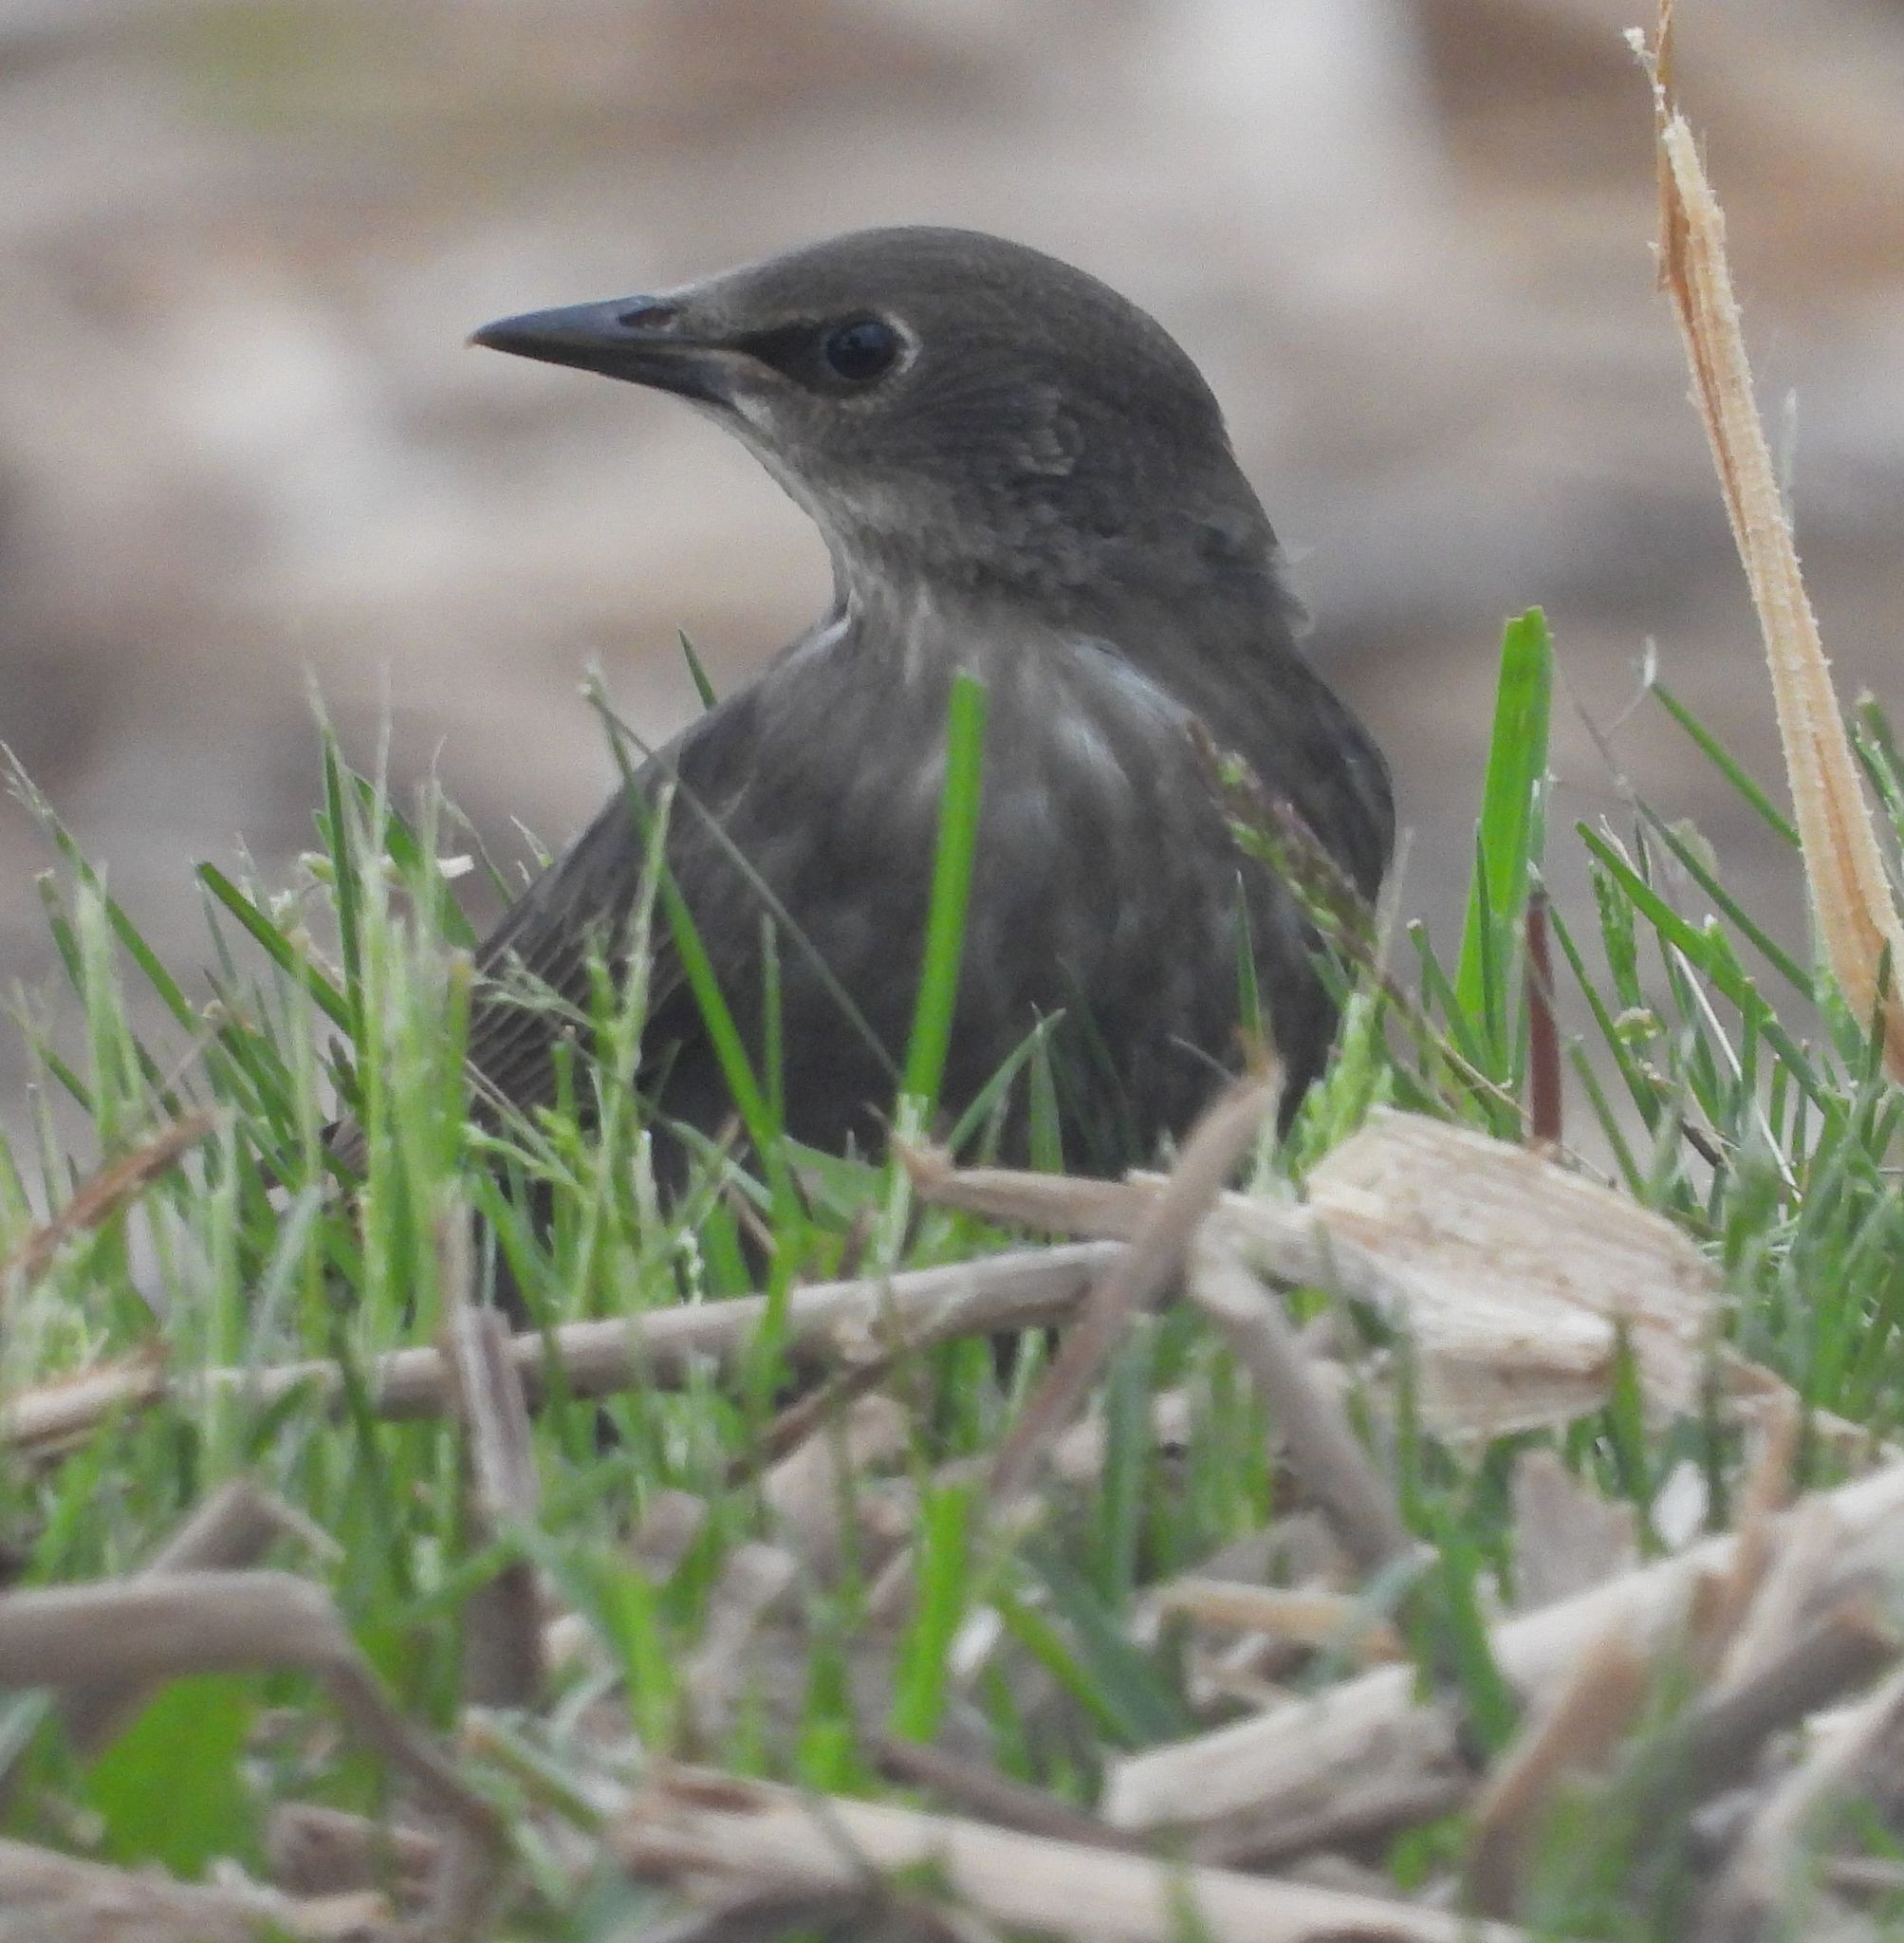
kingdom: Animalia
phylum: Chordata
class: Aves
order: Passeriformes
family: Sturnidae
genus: Sturnus
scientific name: Sturnus vulgaris
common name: Common starling
